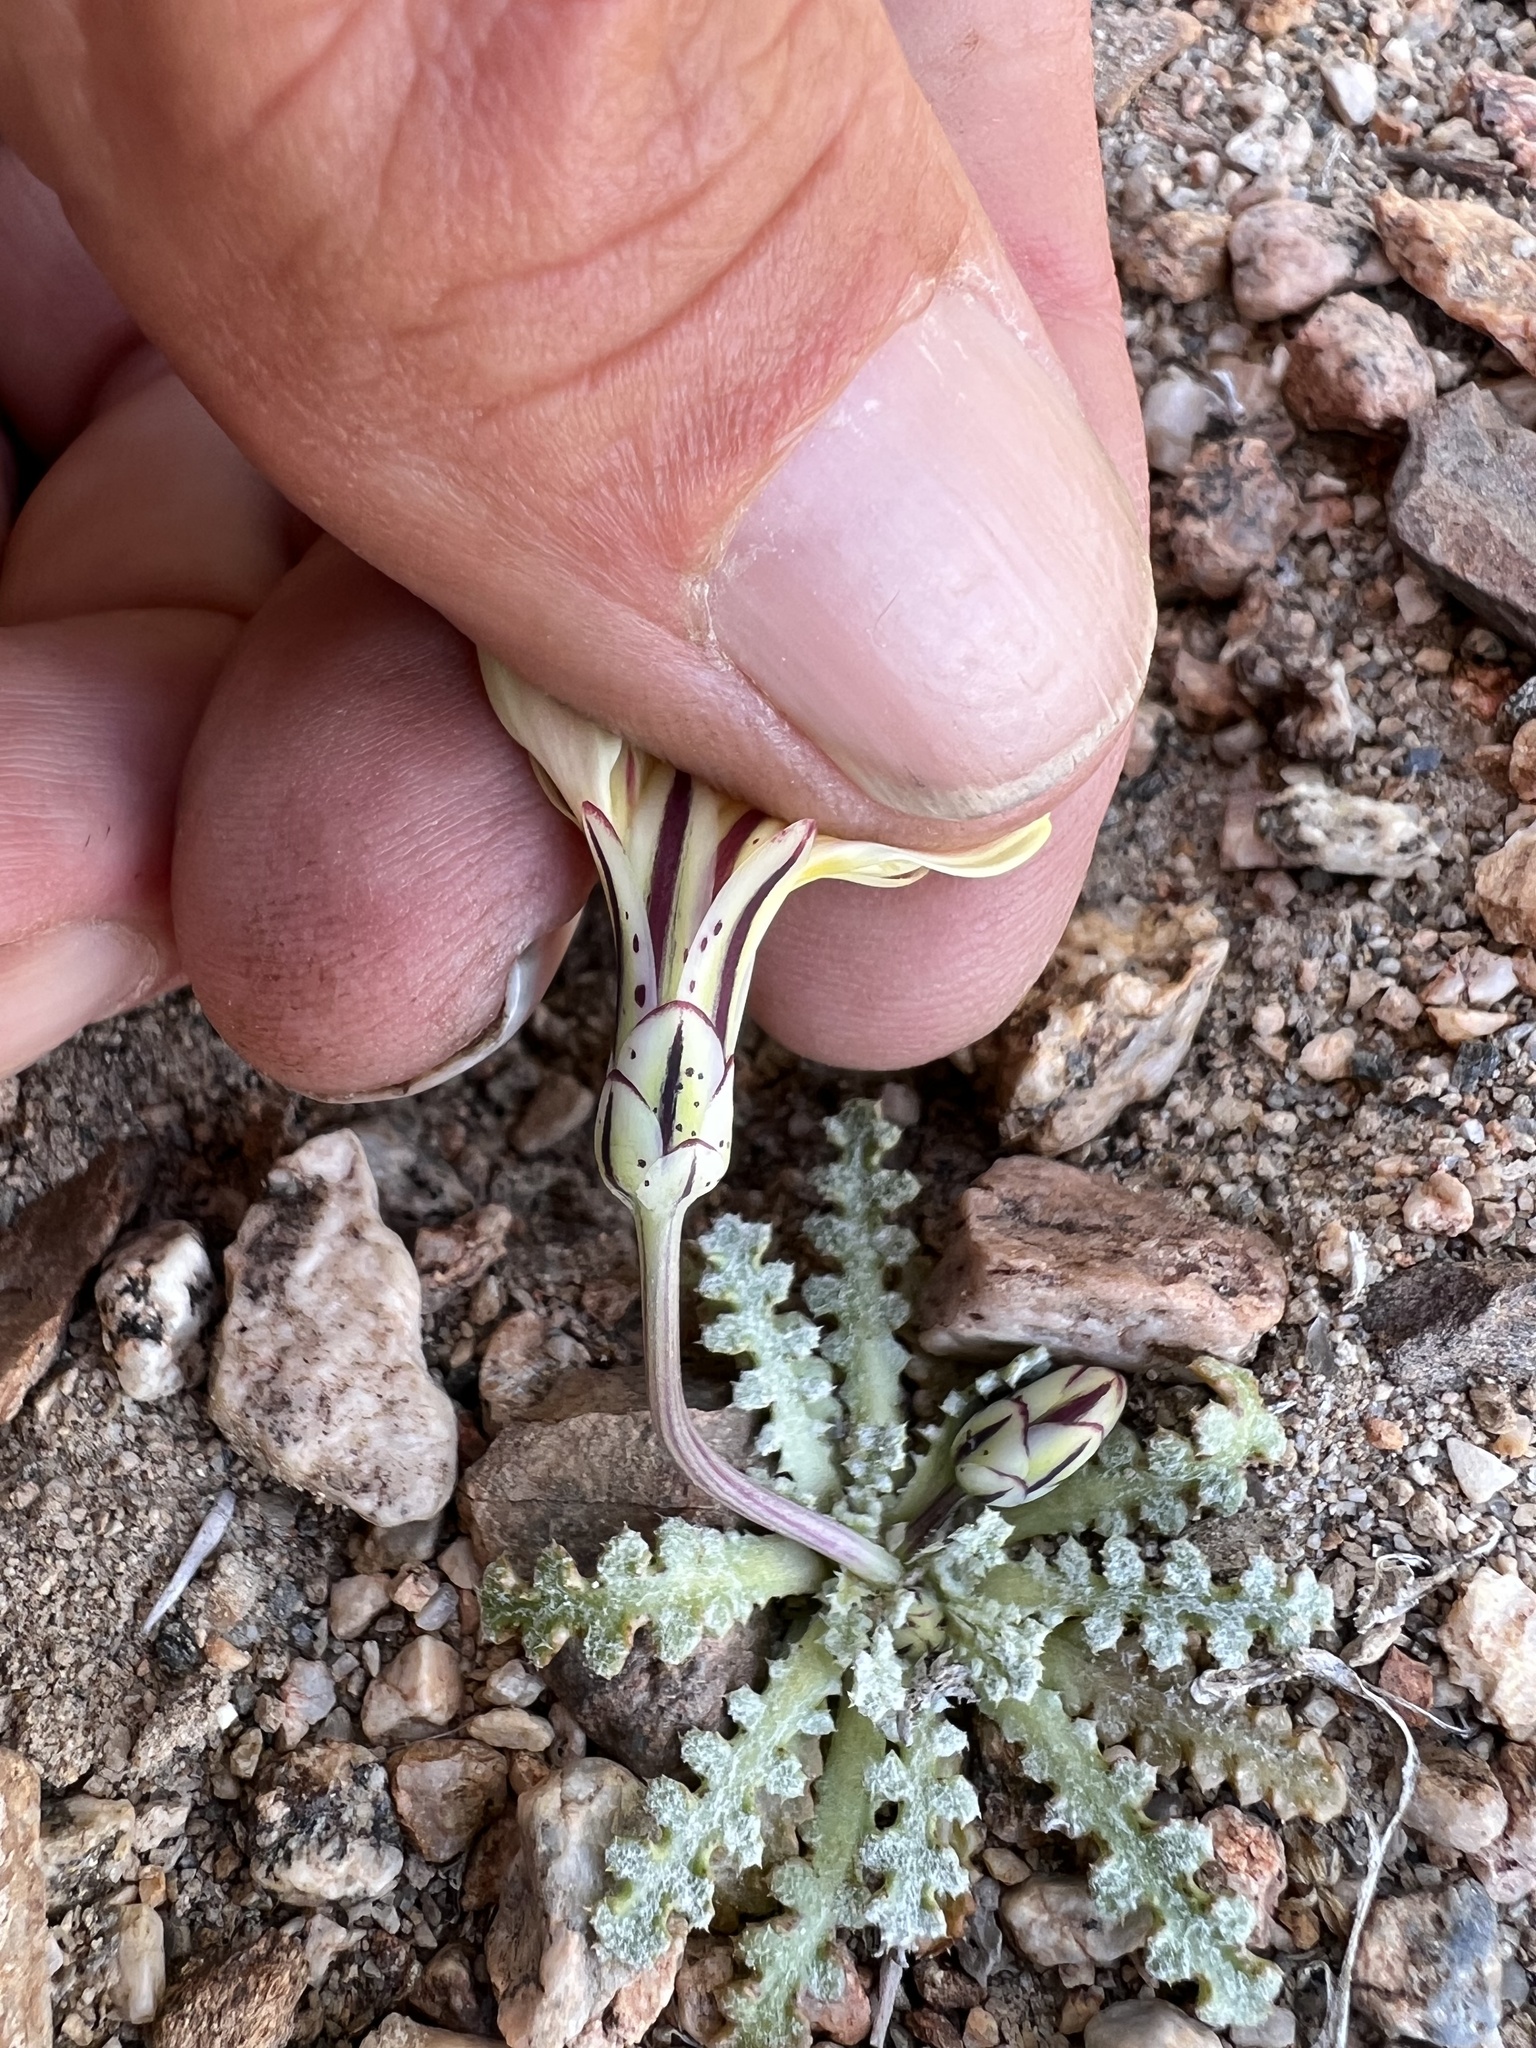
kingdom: Plantae
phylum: Tracheophyta
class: Magnoliopsida
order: Asterales
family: Asteraceae
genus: Anisocoma
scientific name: Anisocoma acaulis
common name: Scalebud
